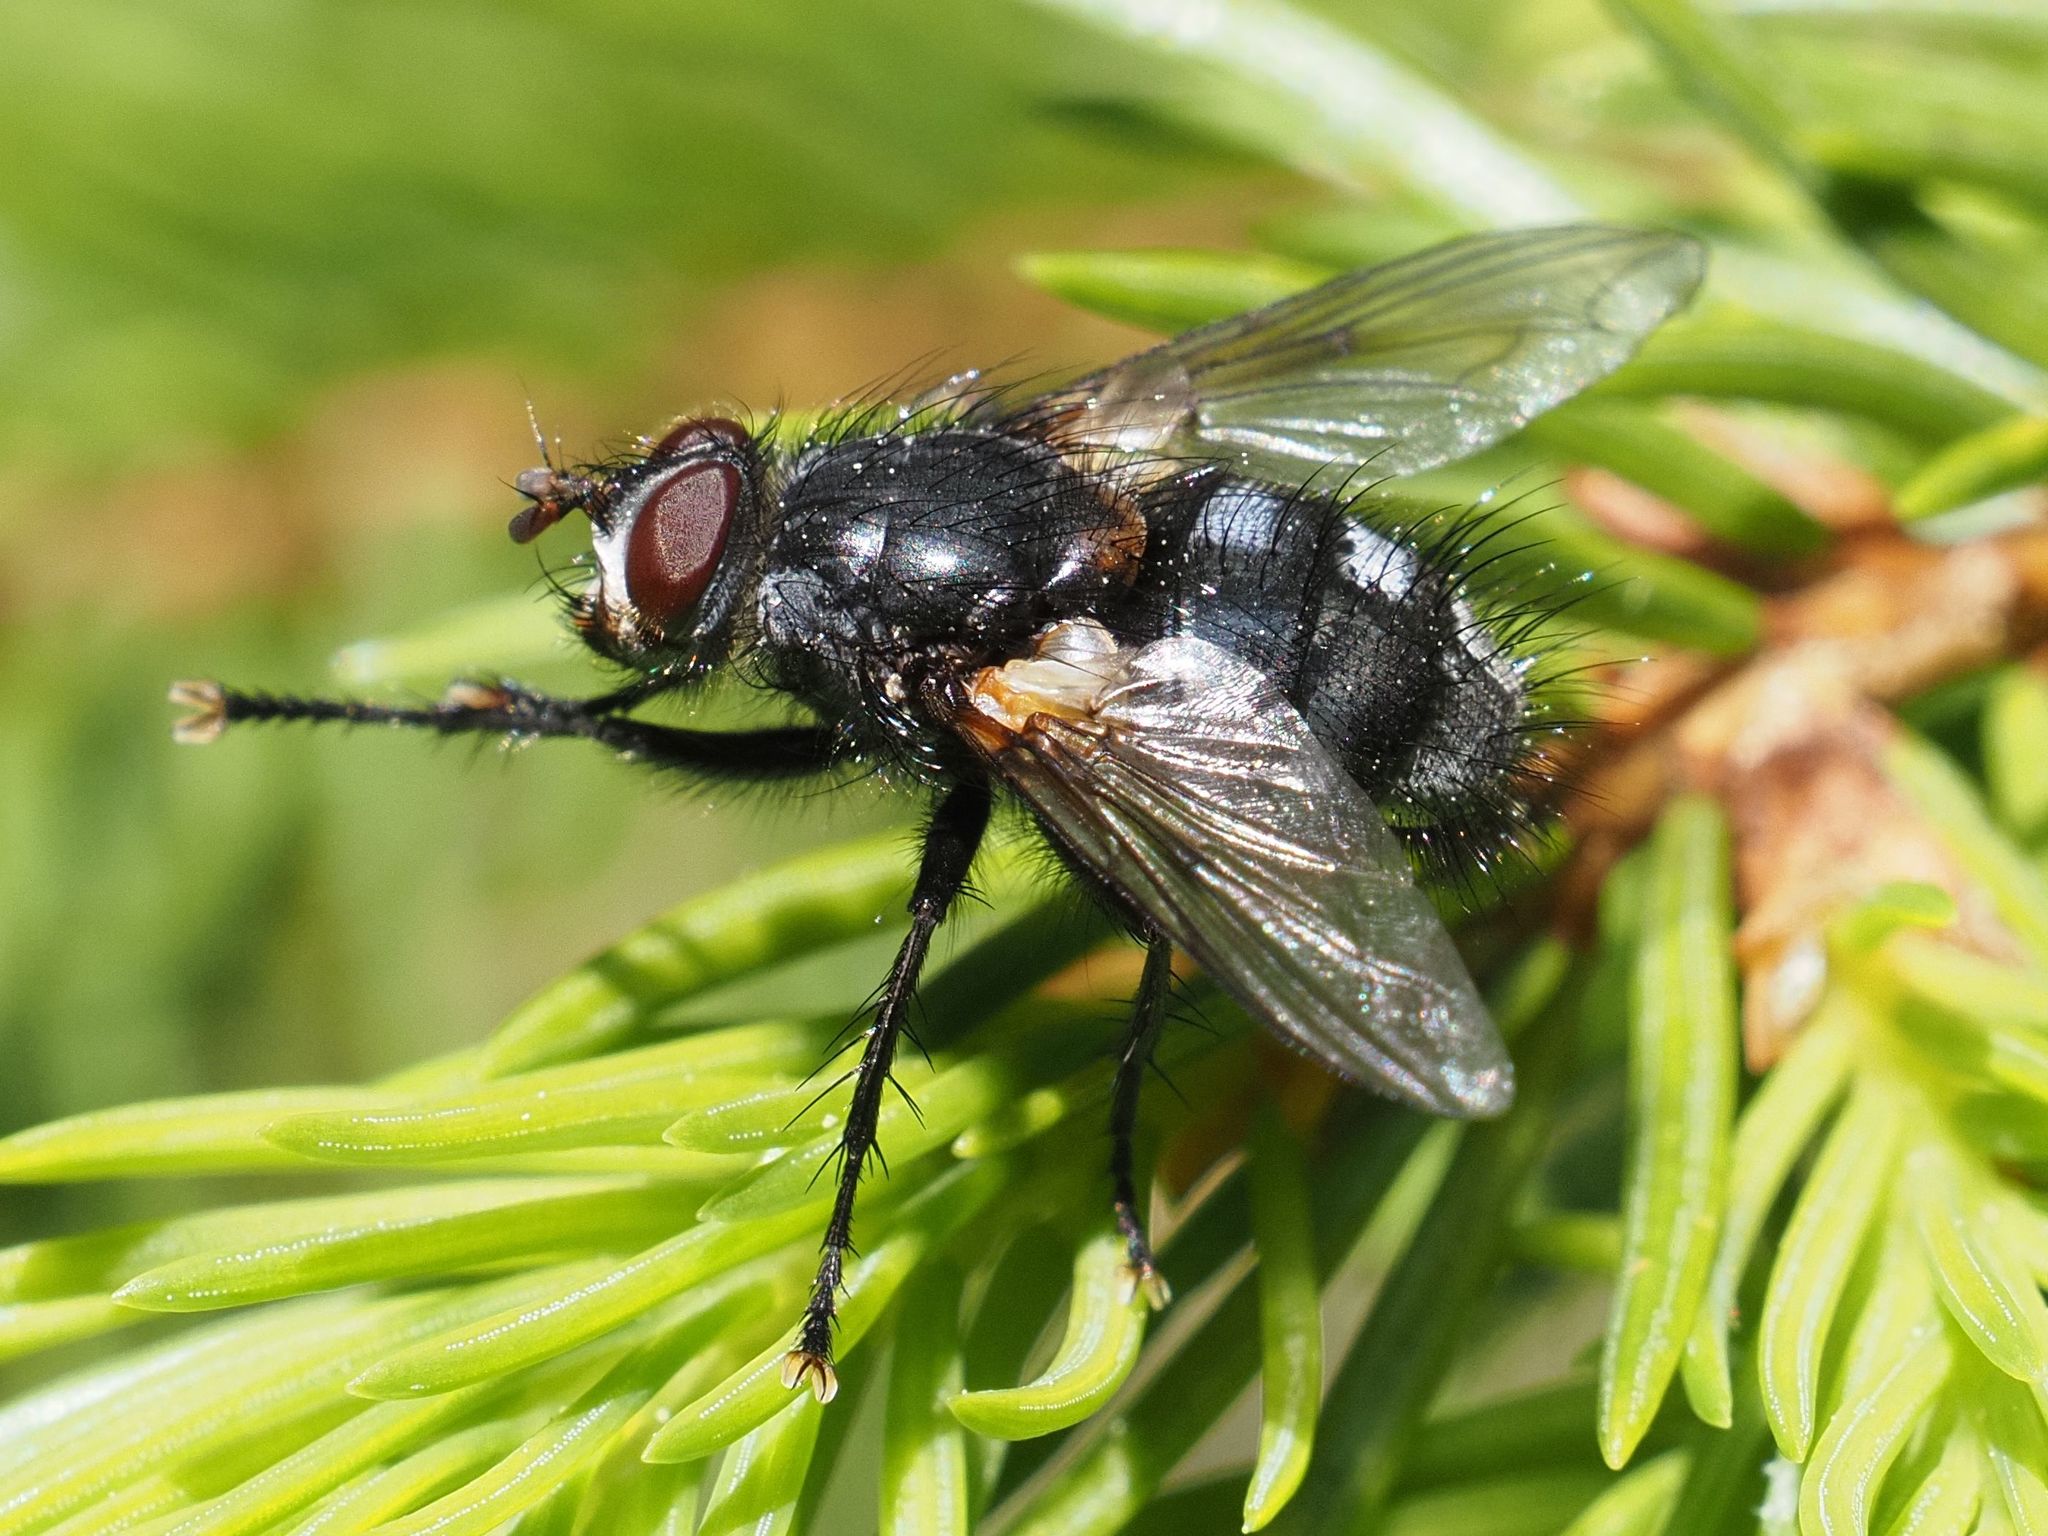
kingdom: Animalia
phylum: Arthropoda
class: Insecta
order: Diptera
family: Tachinidae
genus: Panzeria
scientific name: Panzeria rudis
